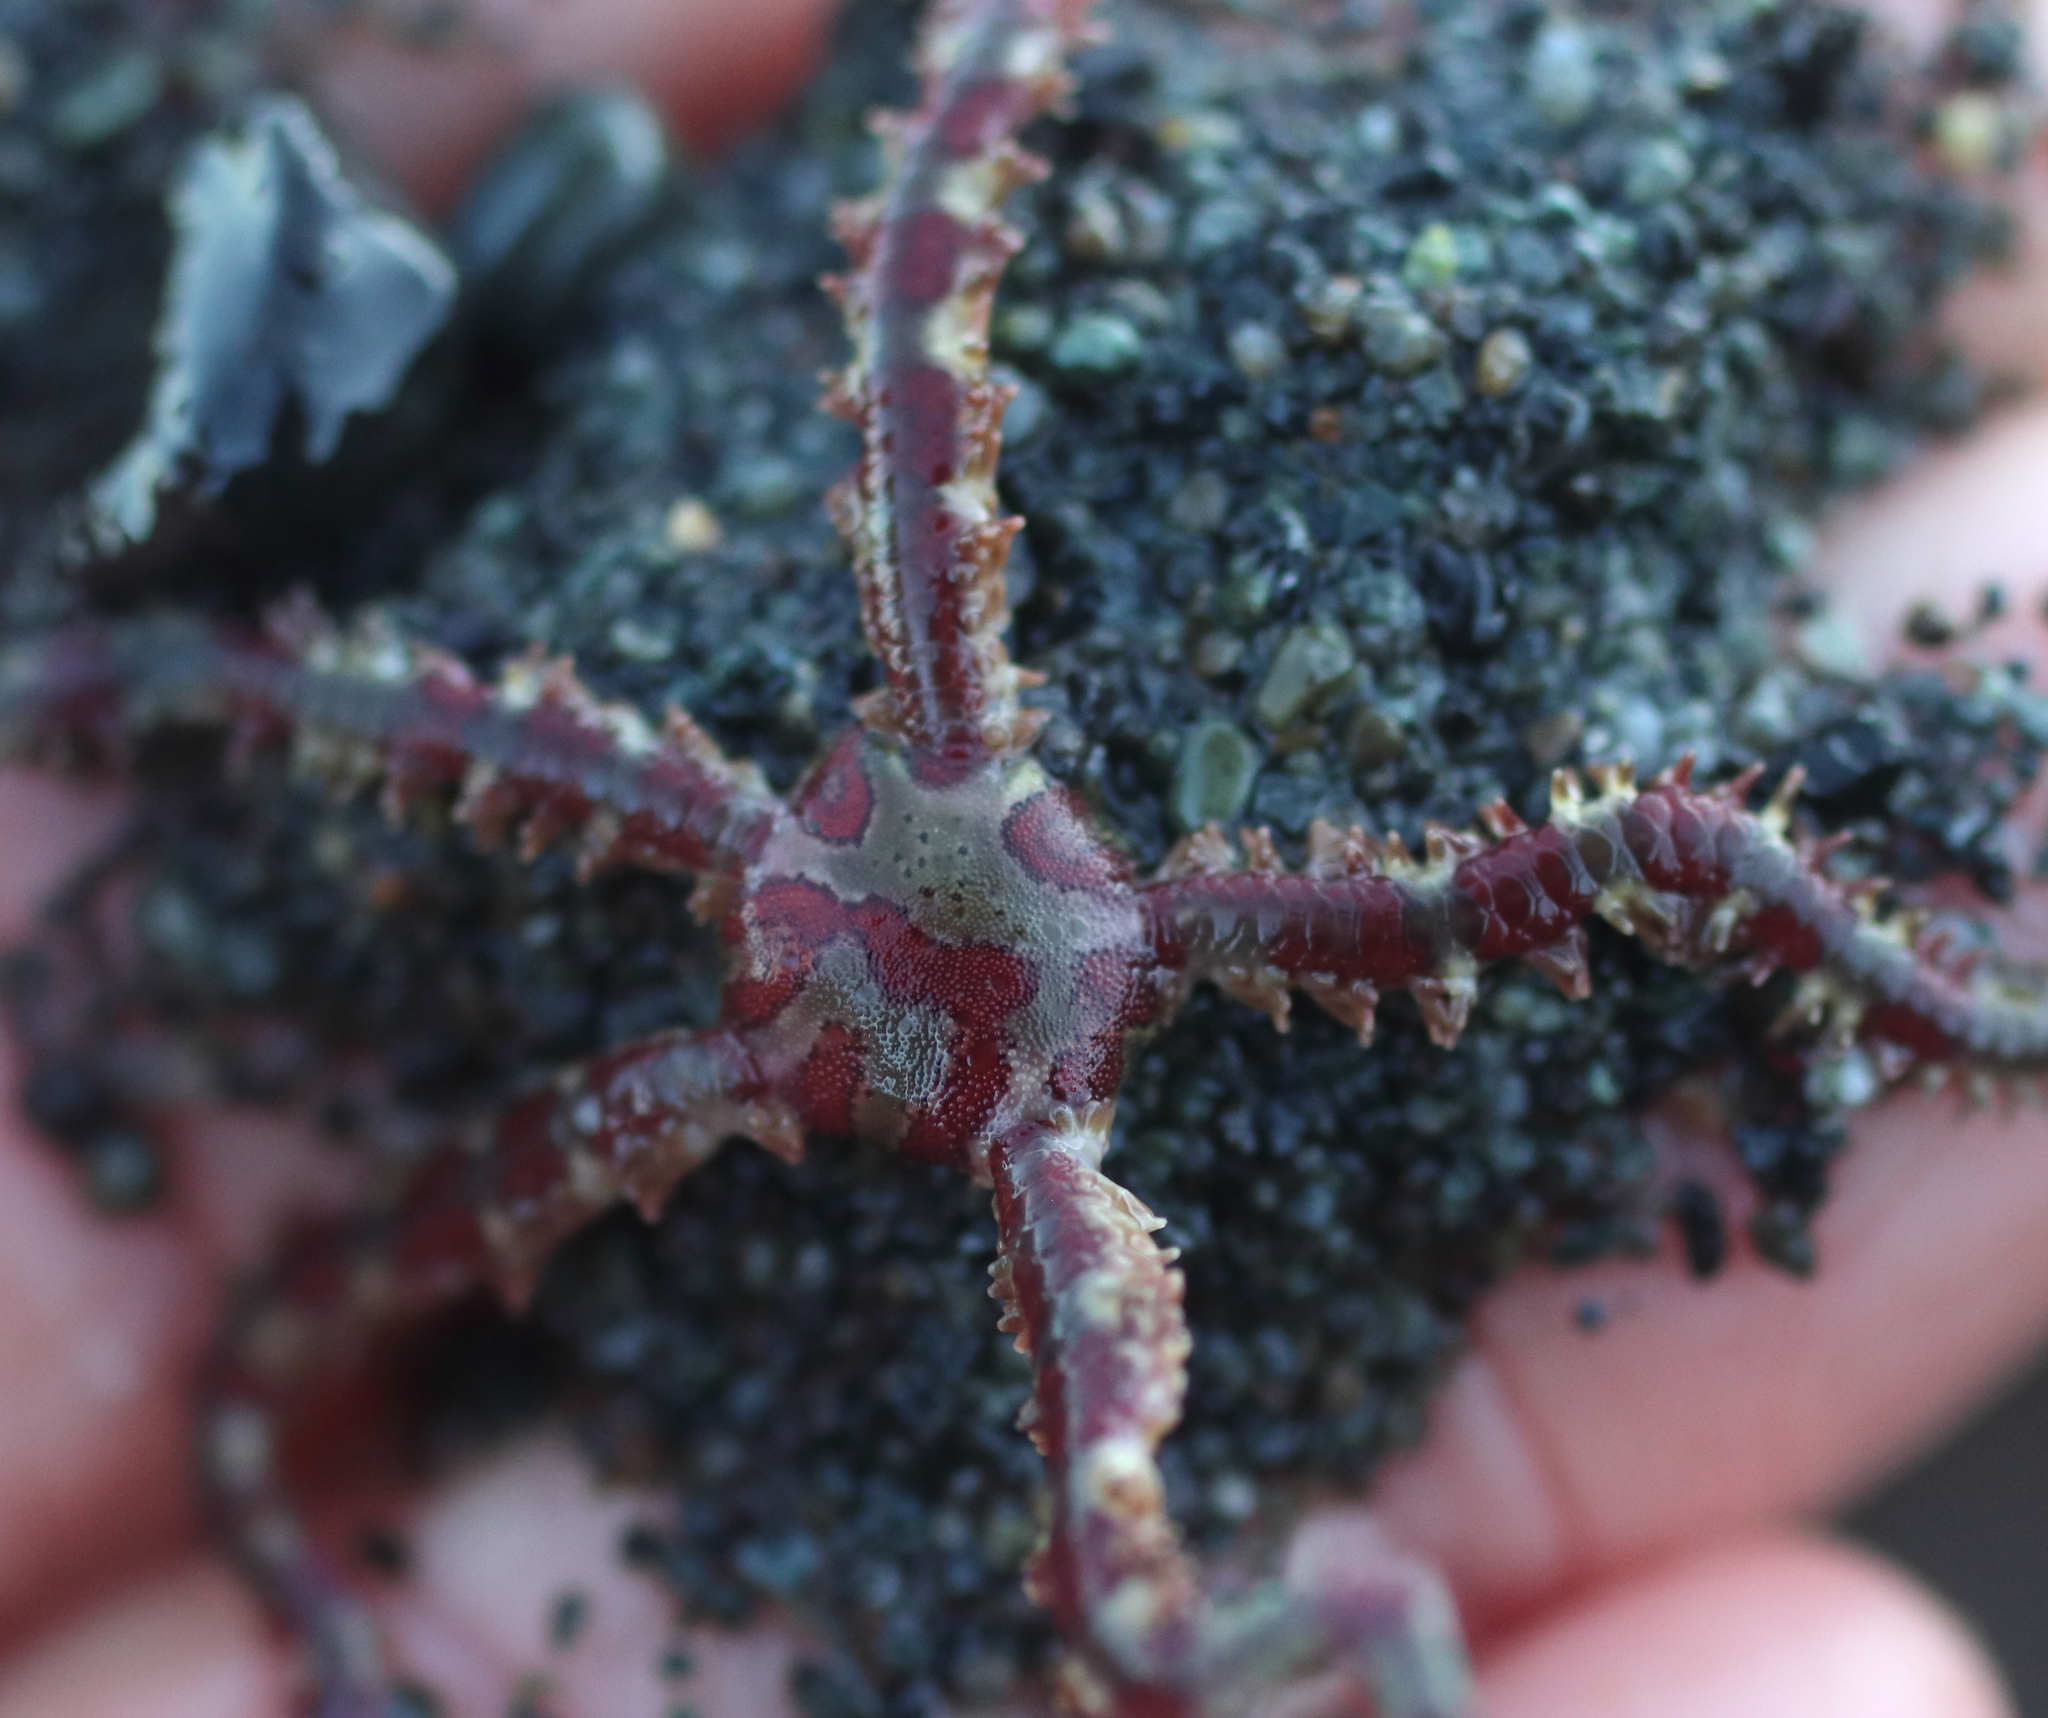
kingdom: Animalia
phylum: Echinodermata
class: Ophiuroidea
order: Amphilepidida
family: Ophiopholidae
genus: Ophiopholis
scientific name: Ophiopholis kennerlyi
